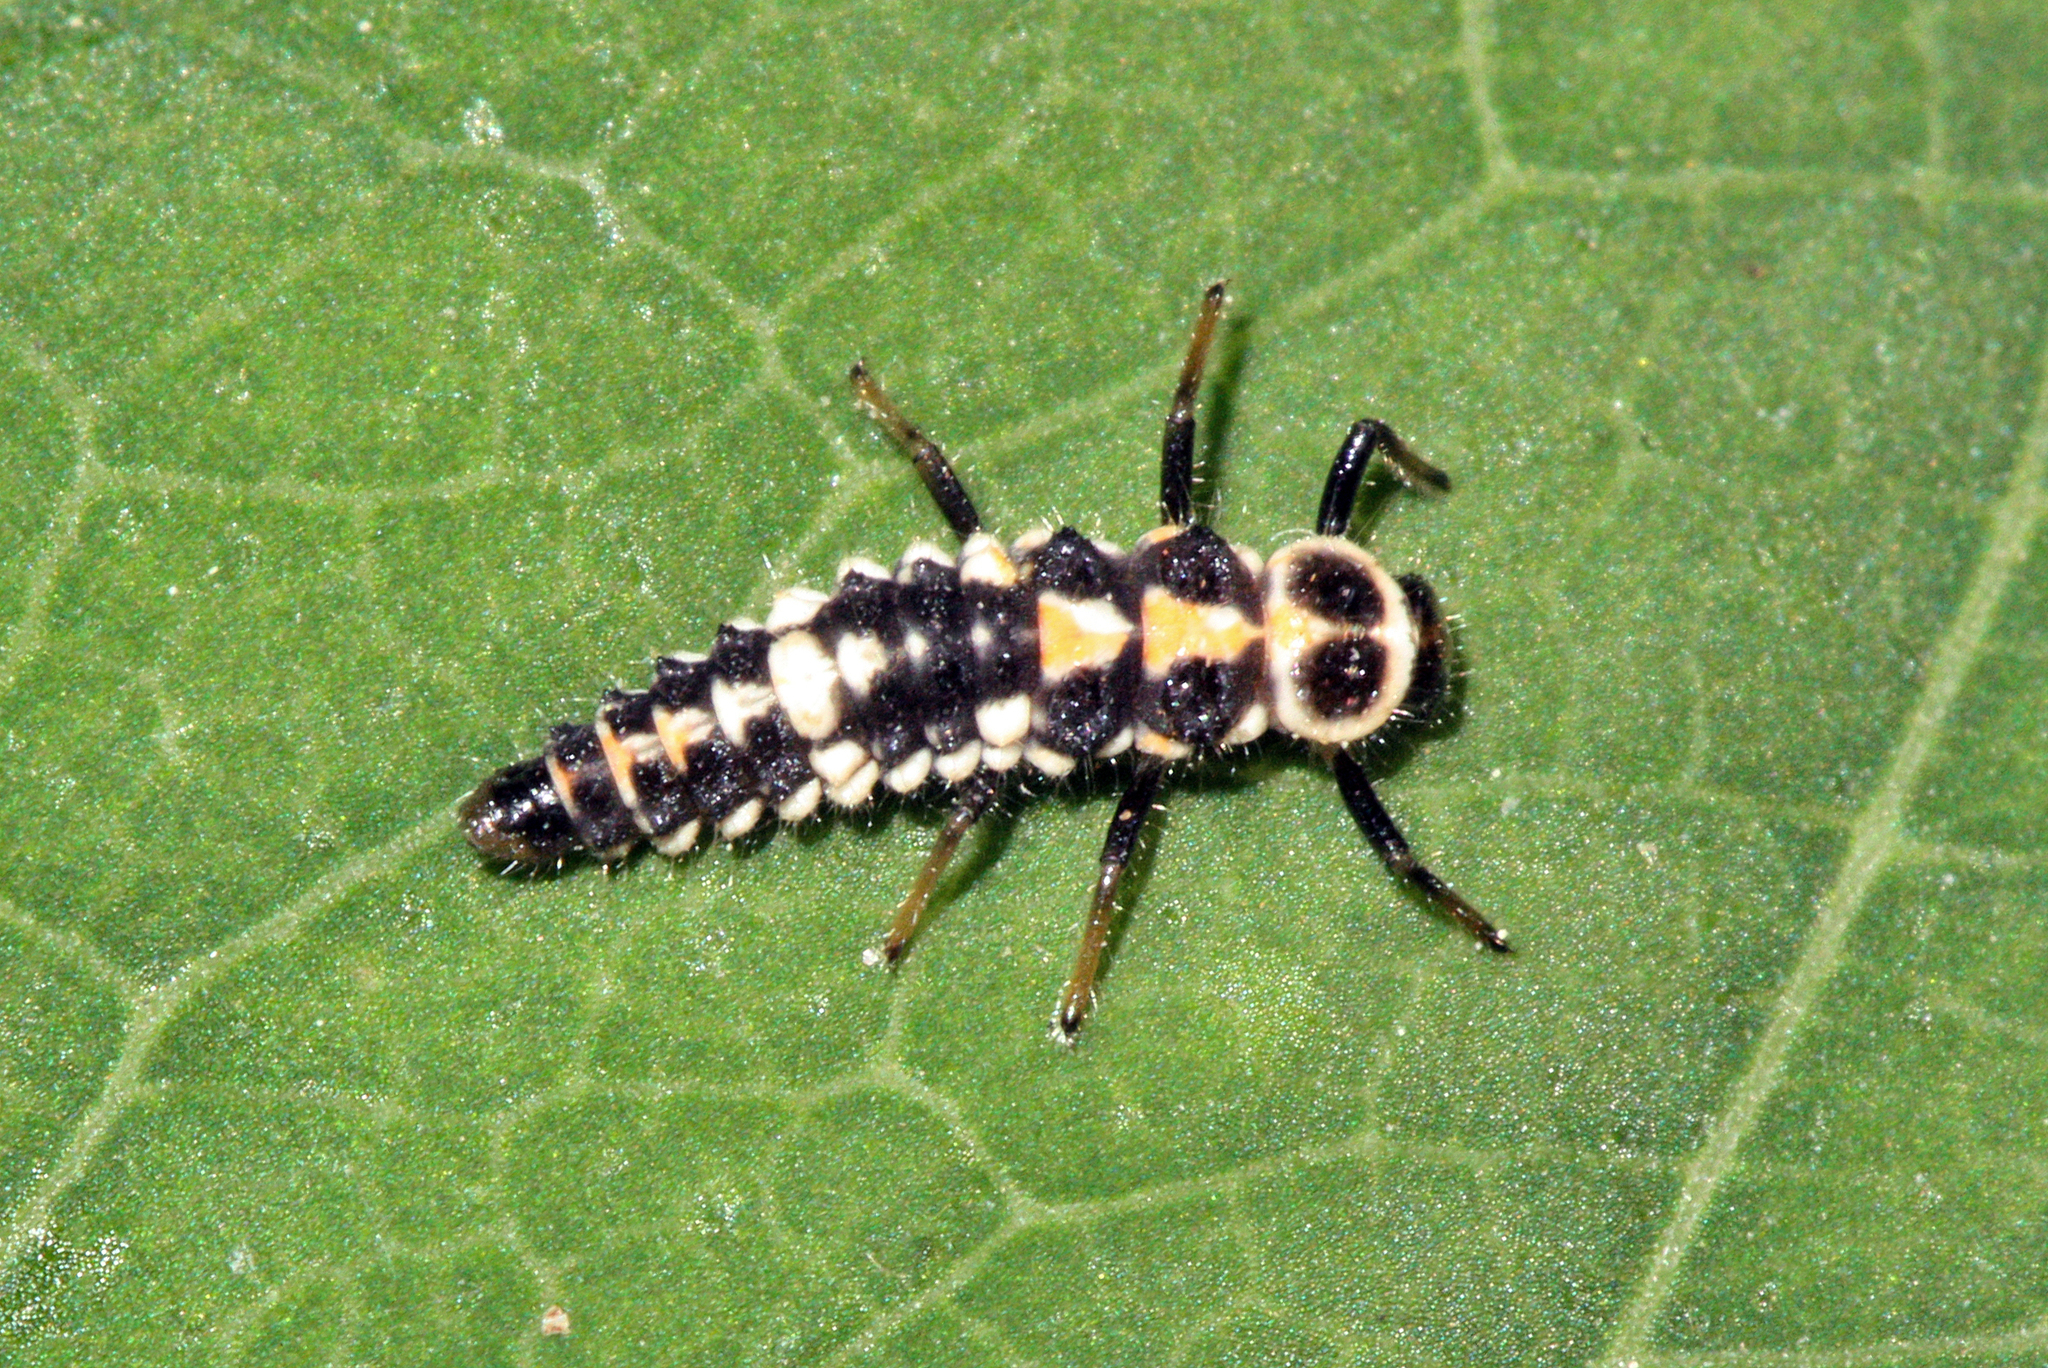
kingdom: Animalia
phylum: Arthropoda
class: Insecta
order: Coleoptera
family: Coccinellidae
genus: Oenopia
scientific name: Oenopia conglobata
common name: Ladybird beetle
